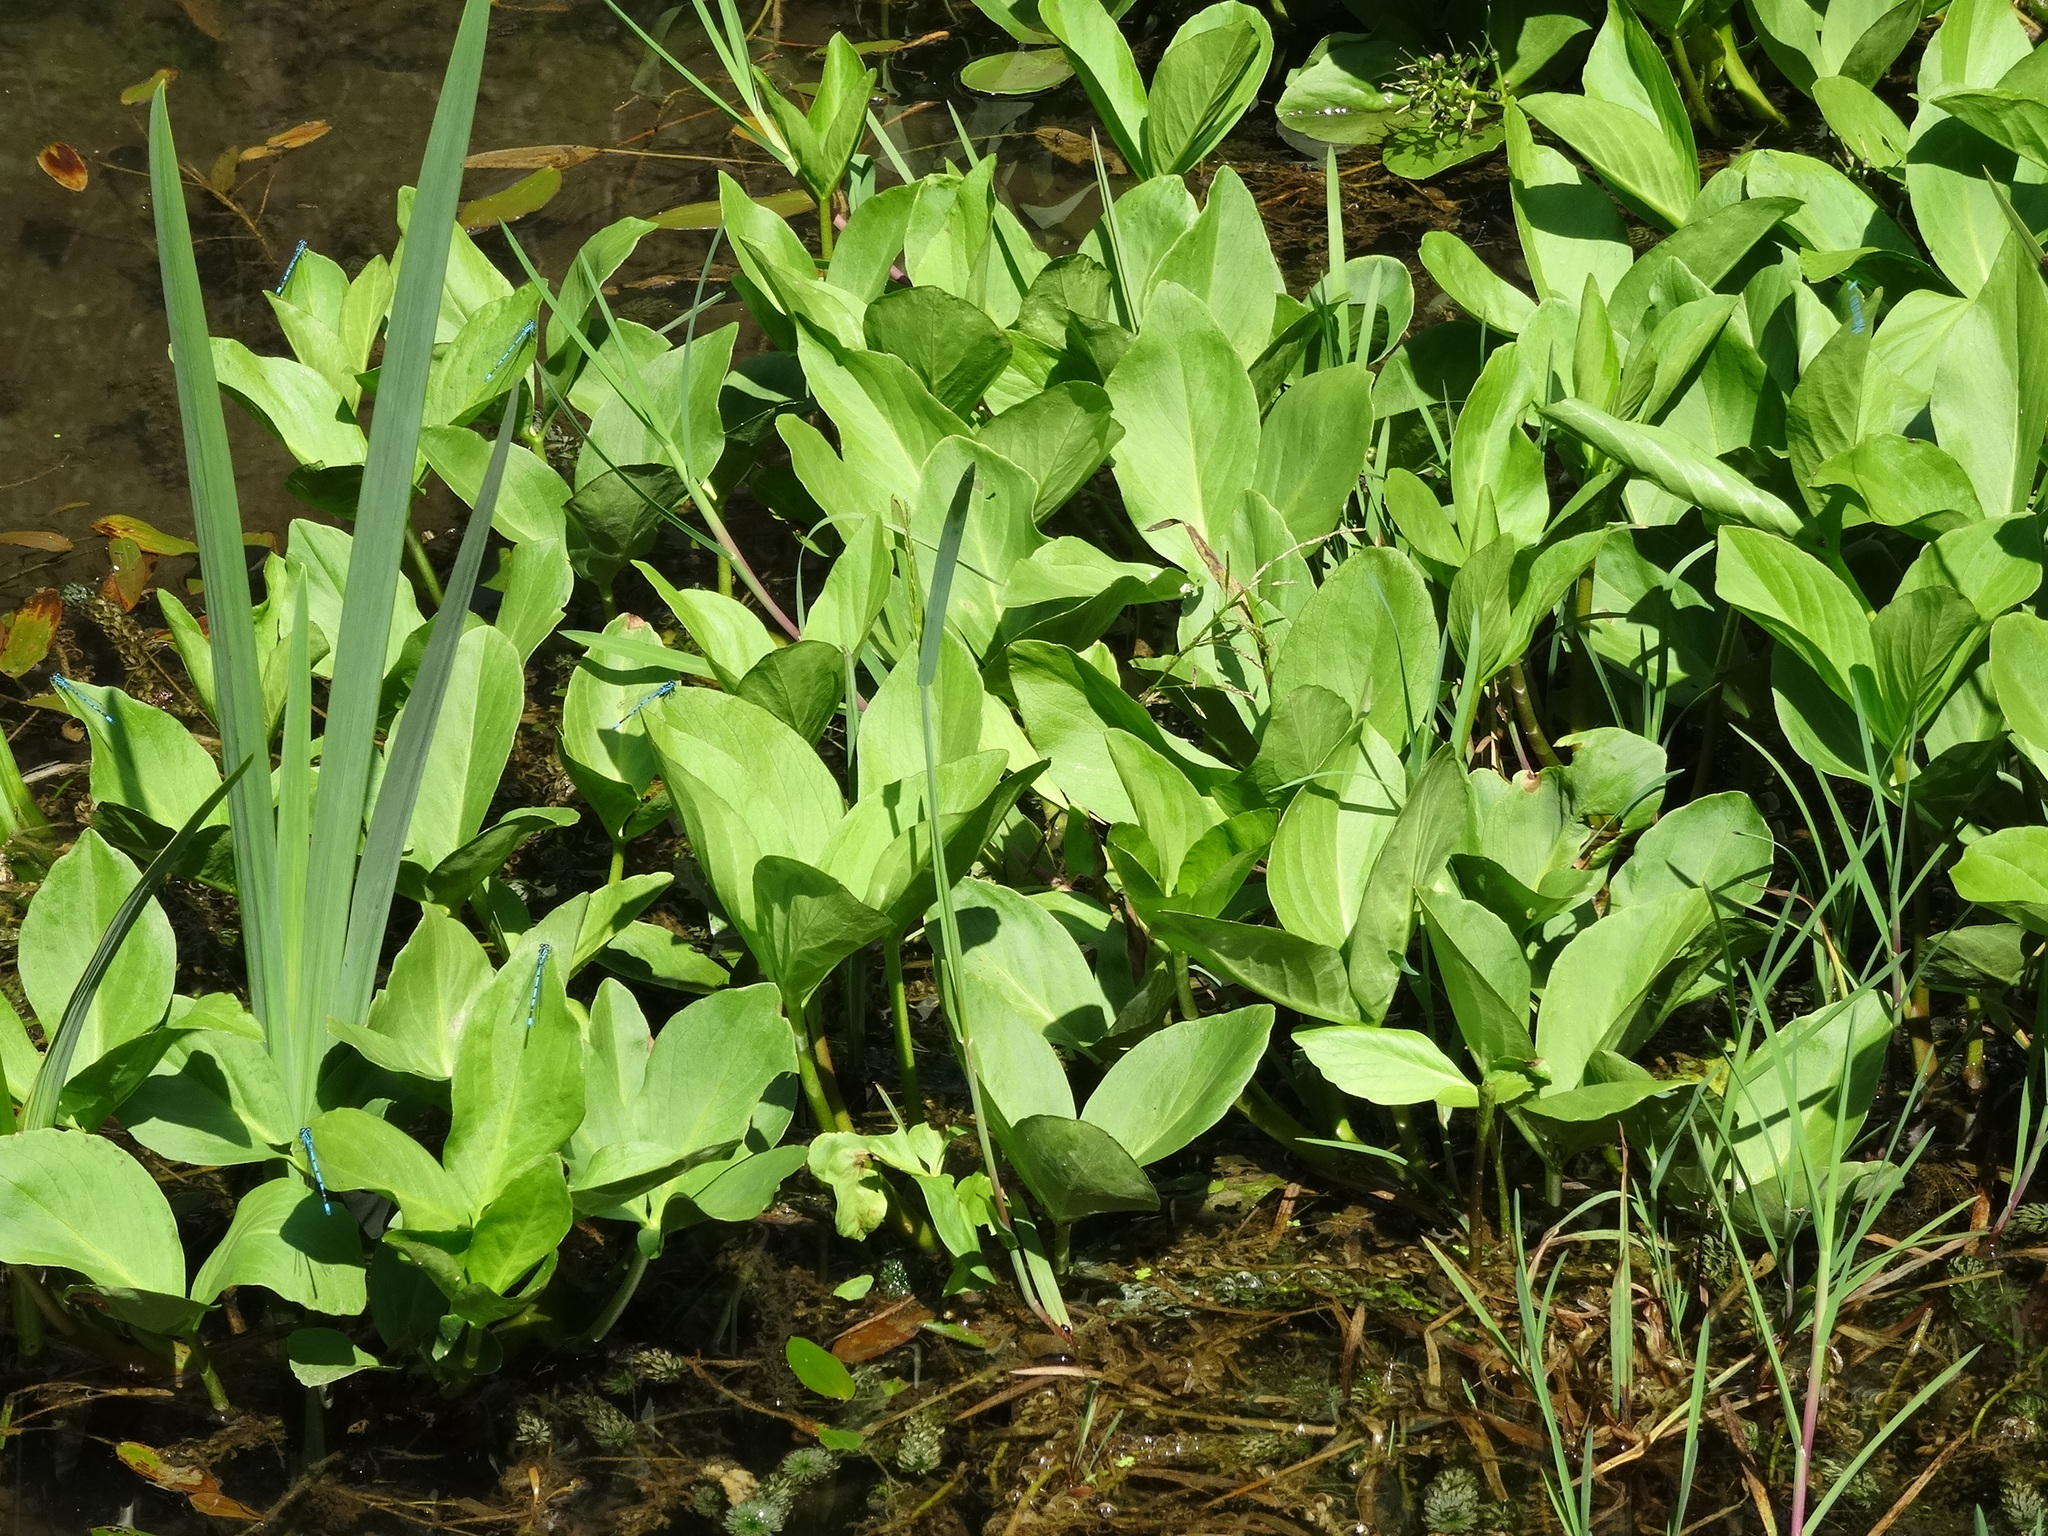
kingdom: Plantae
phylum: Tracheophyta
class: Magnoliopsida
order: Asterales
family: Menyanthaceae
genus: Menyanthes
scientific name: Menyanthes trifoliata
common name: Bogbean
